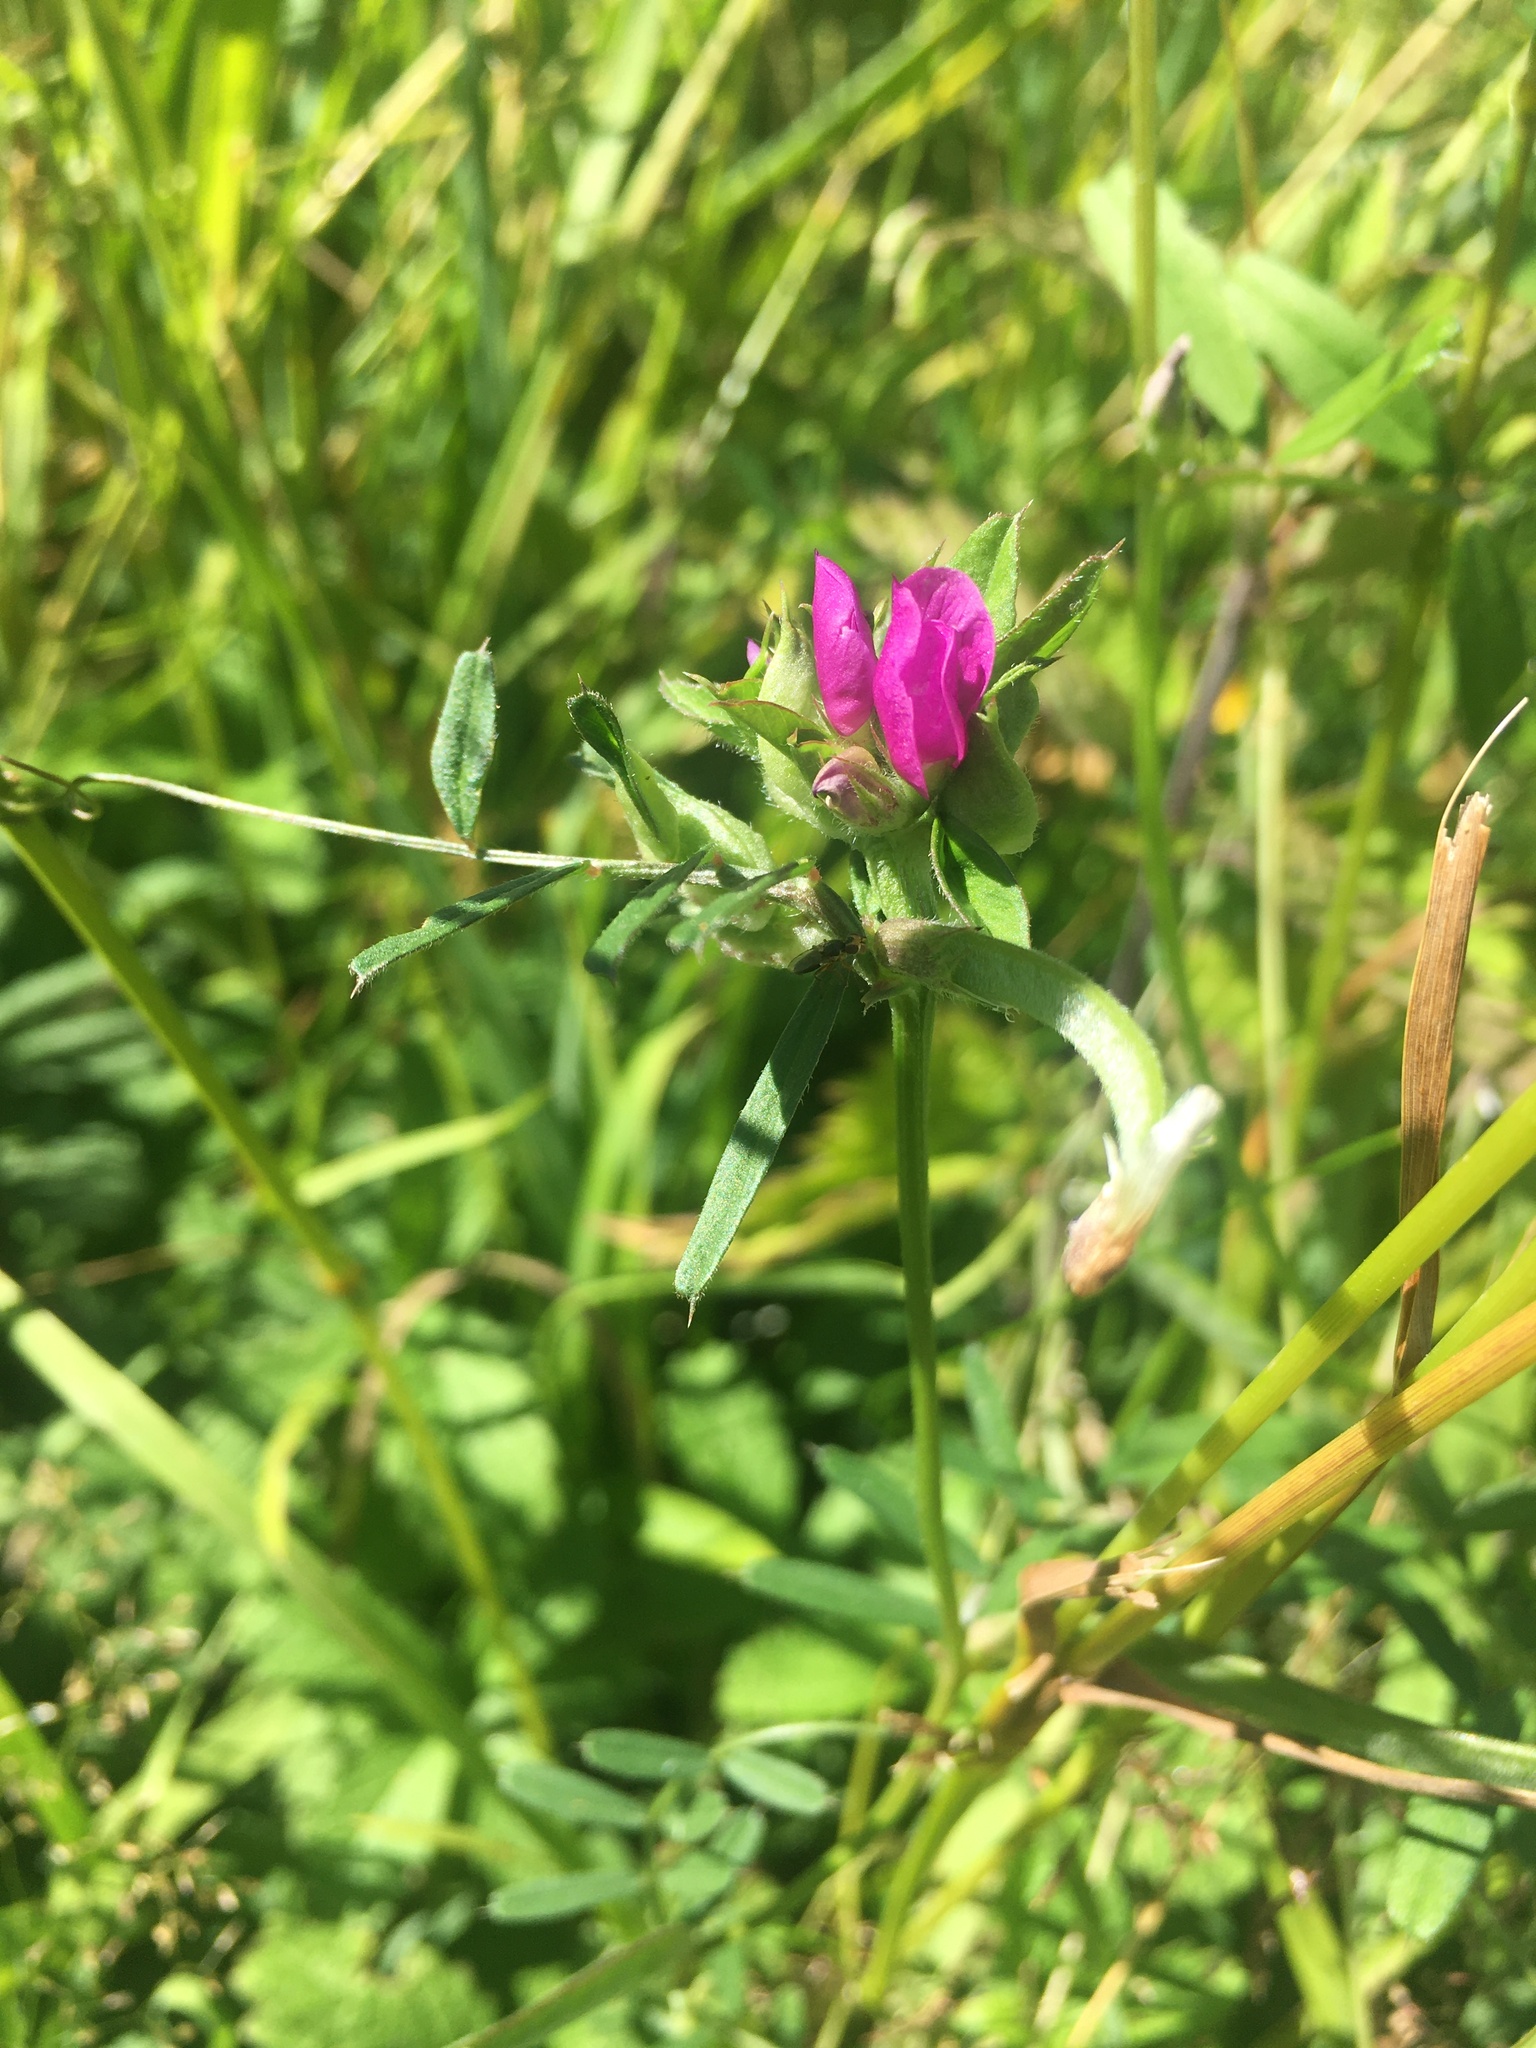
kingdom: Plantae
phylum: Tracheophyta
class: Magnoliopsida
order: Fabales
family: Fabaceae
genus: Vicia
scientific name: Vicia sativa
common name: Garden vetch
